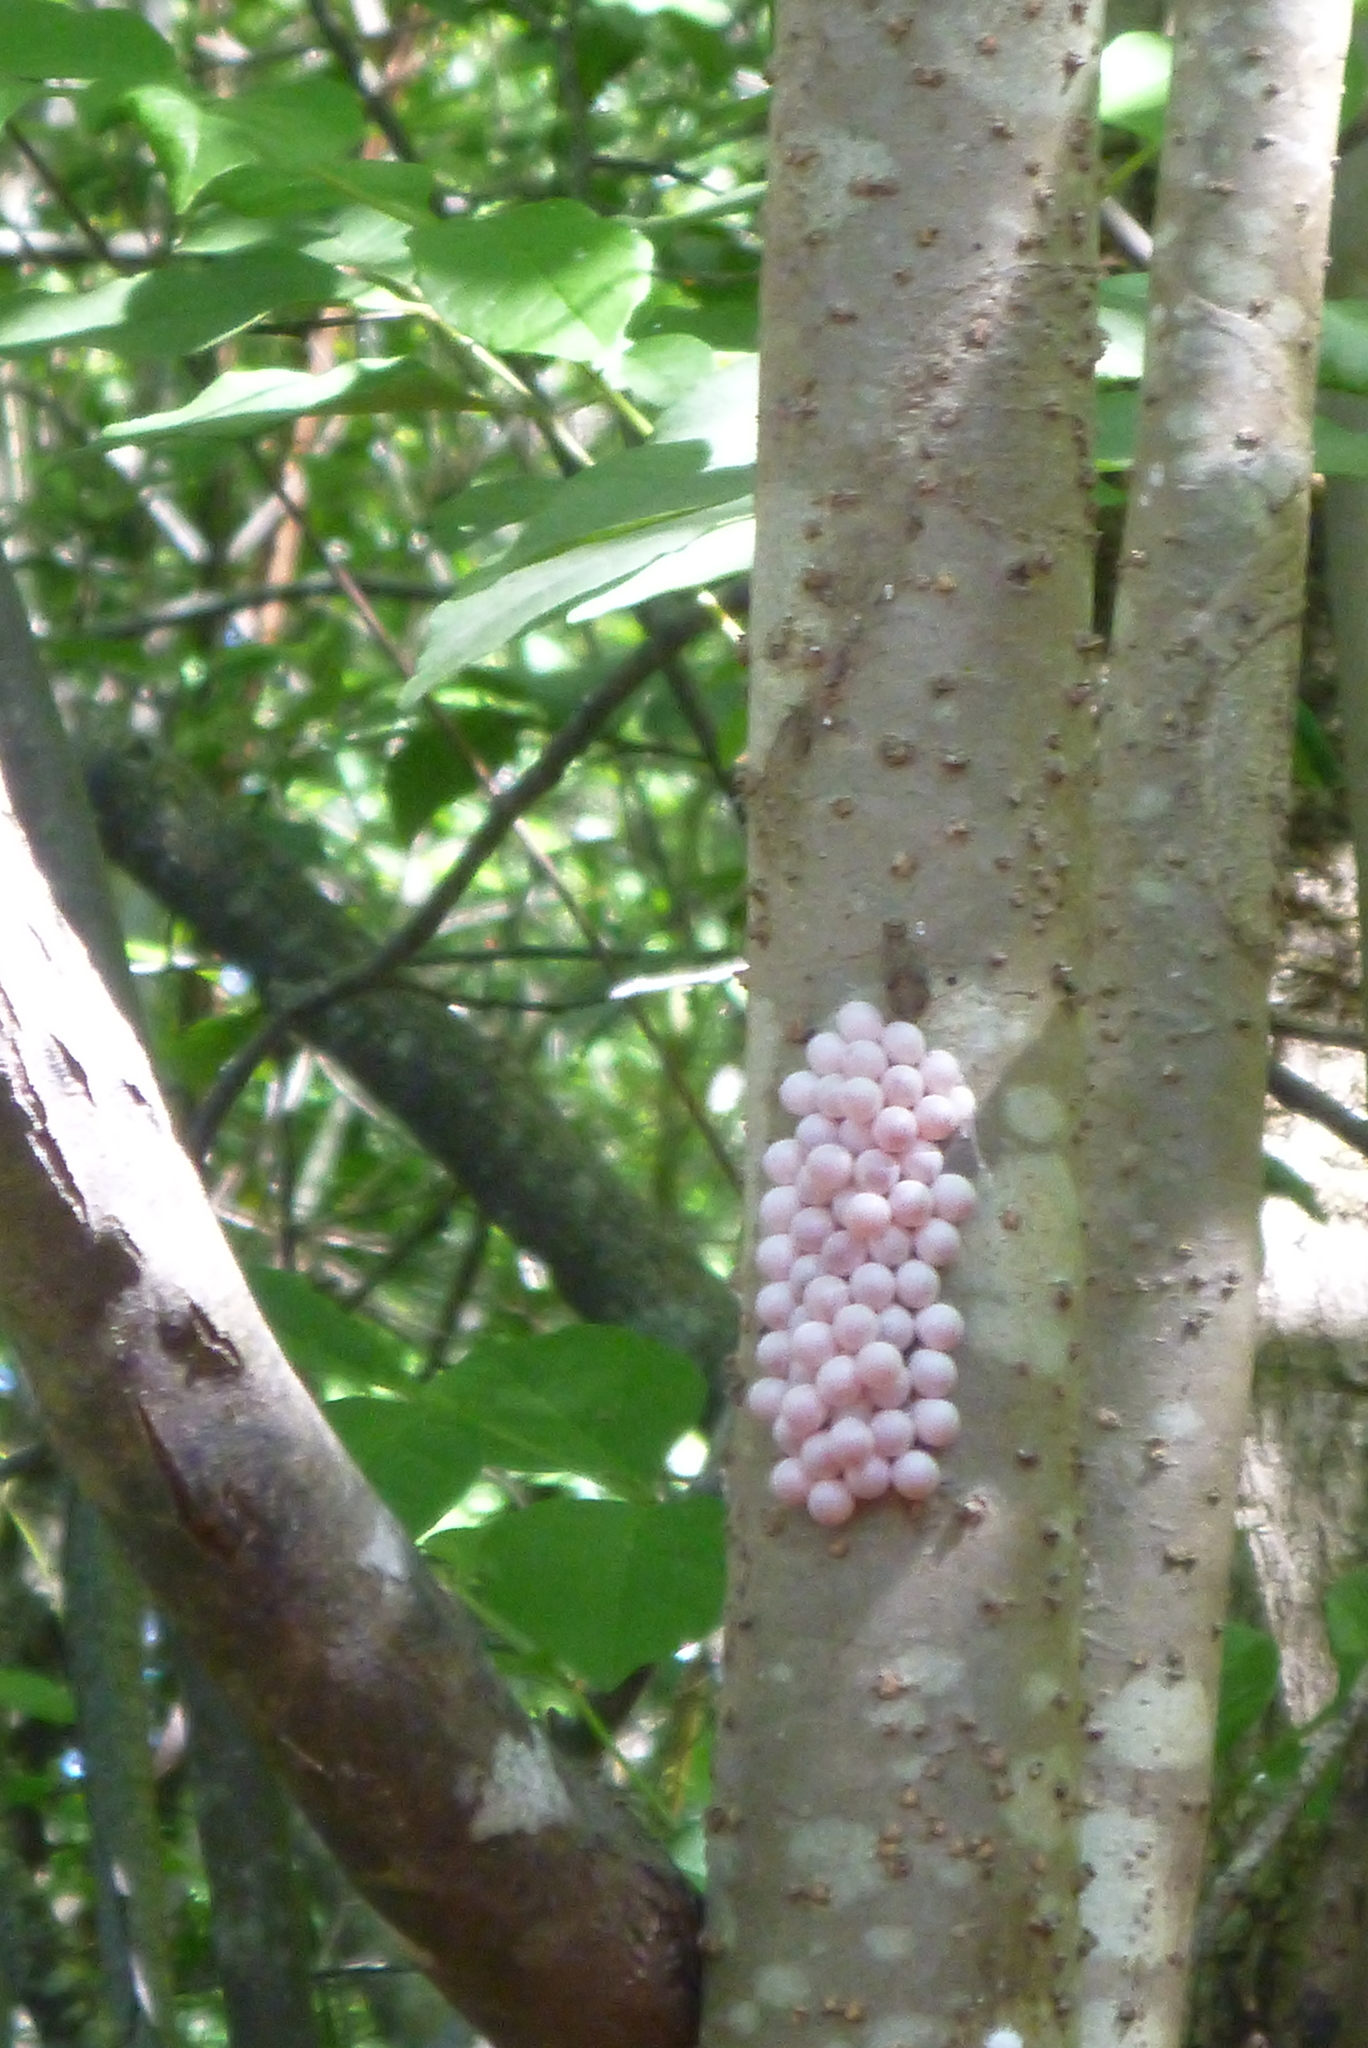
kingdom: Animalia
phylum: Mollusca
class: Gastropoda
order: Architaenioglossa
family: Ampullariidae
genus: Pomacea
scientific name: Pomacea paludosa
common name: Florida applesnail
